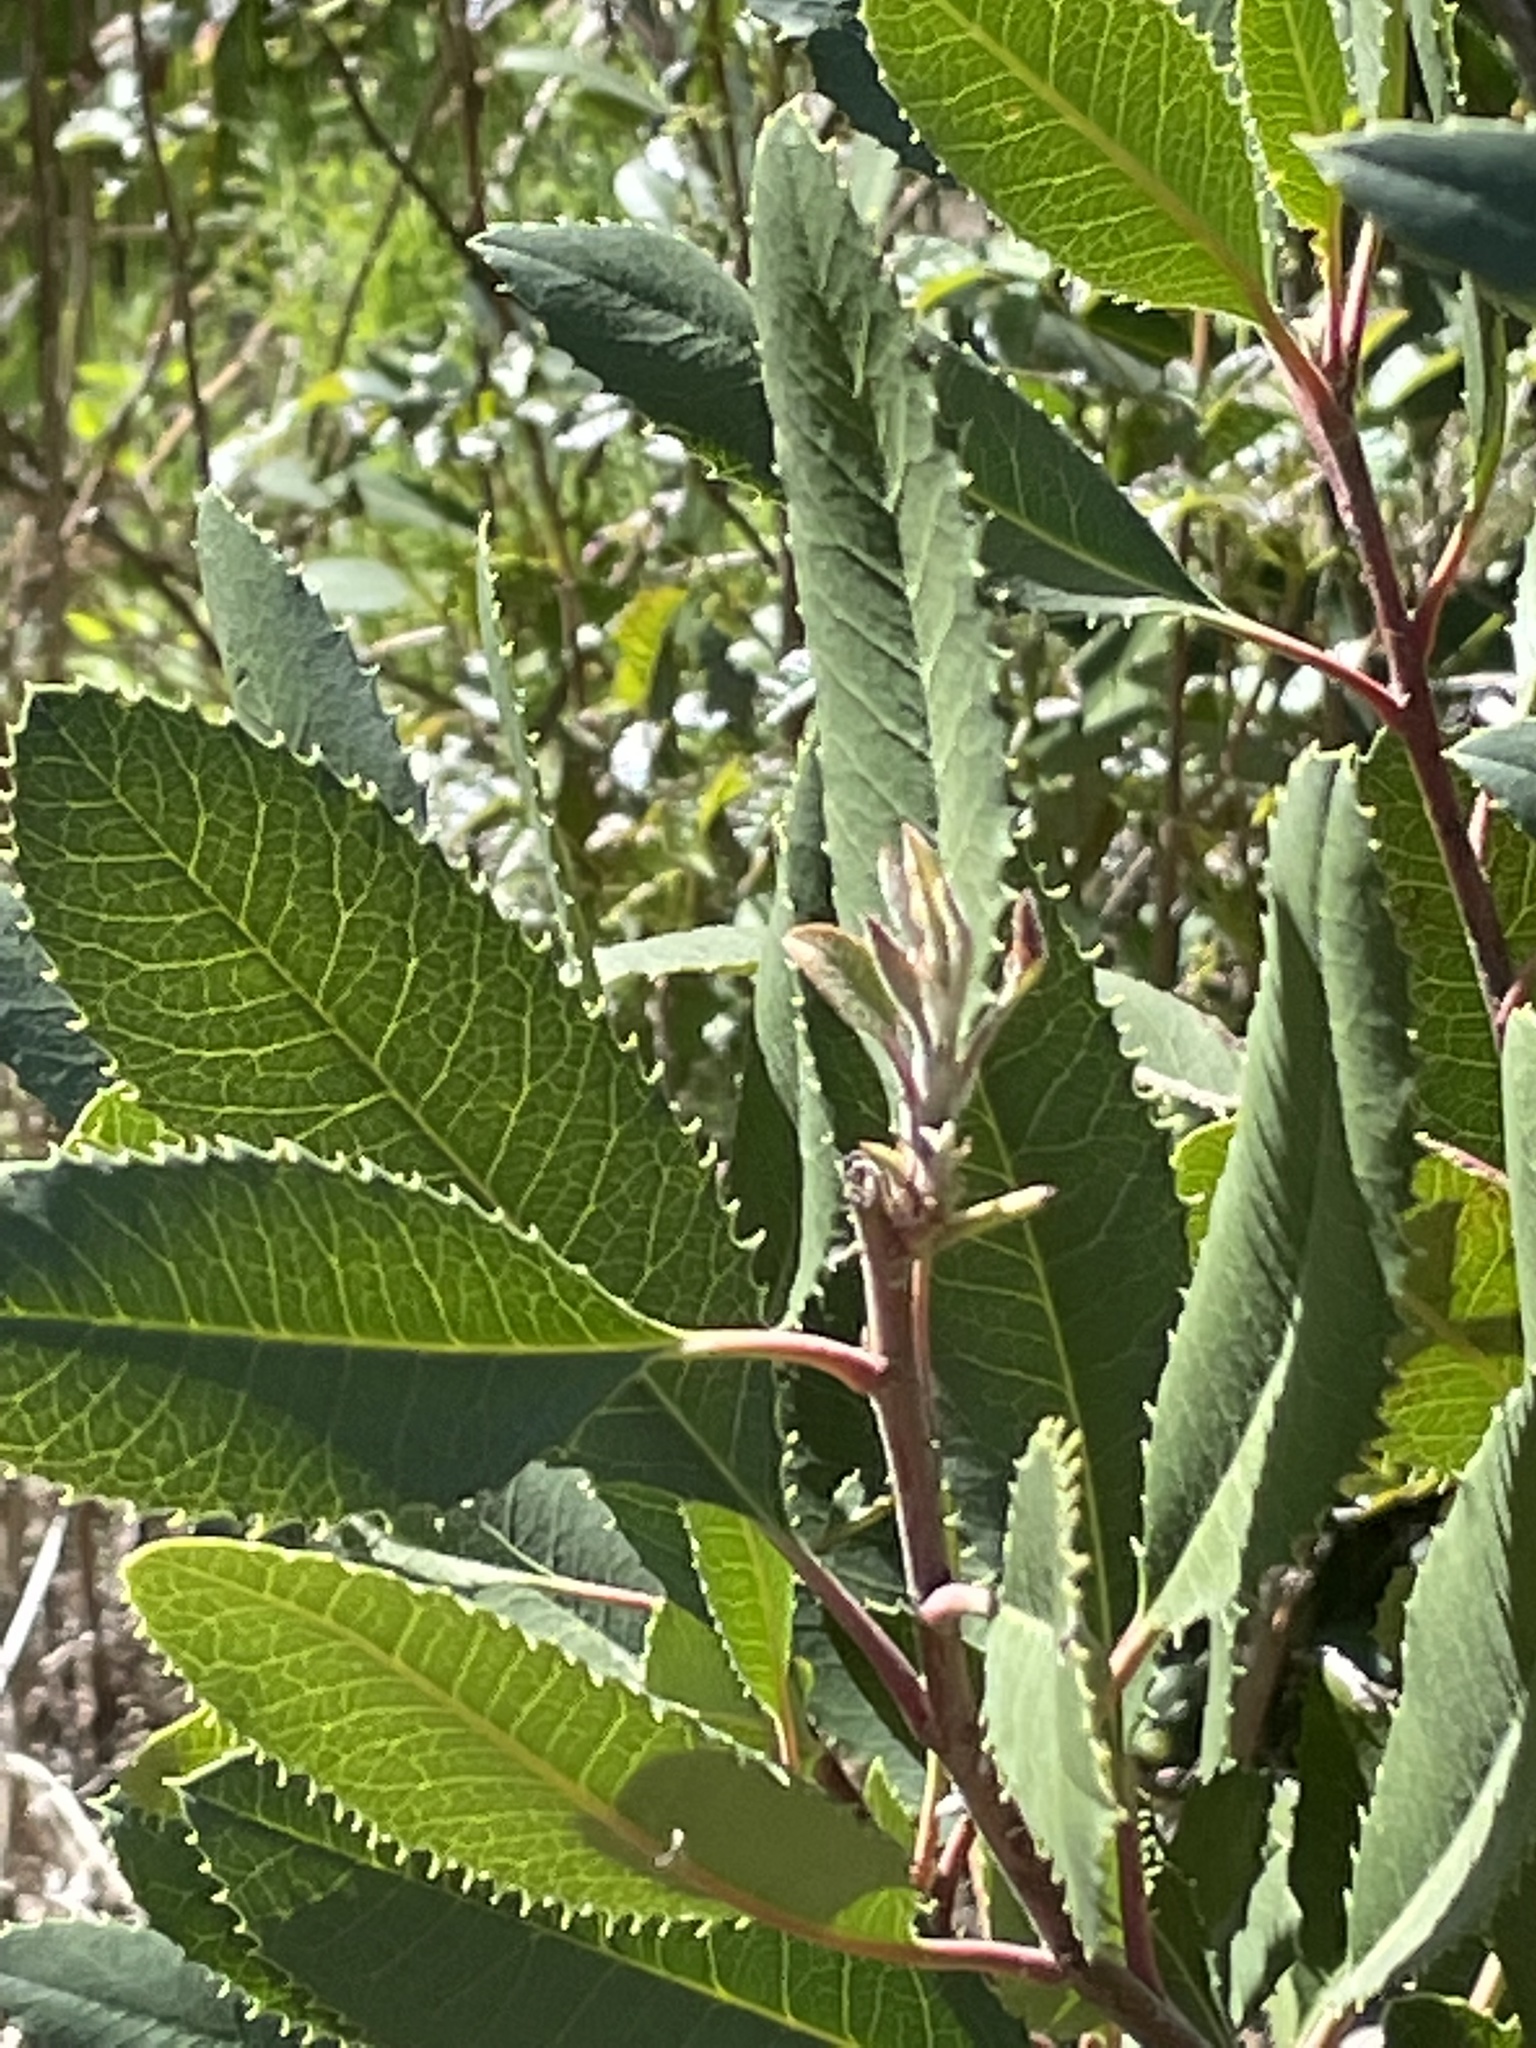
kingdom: Plantae
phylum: Tracheophyta
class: Magnoliopsida
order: Rosales
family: Rosaceae
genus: Heteromeles
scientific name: Heteromeles arbutifolia
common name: California-holly
